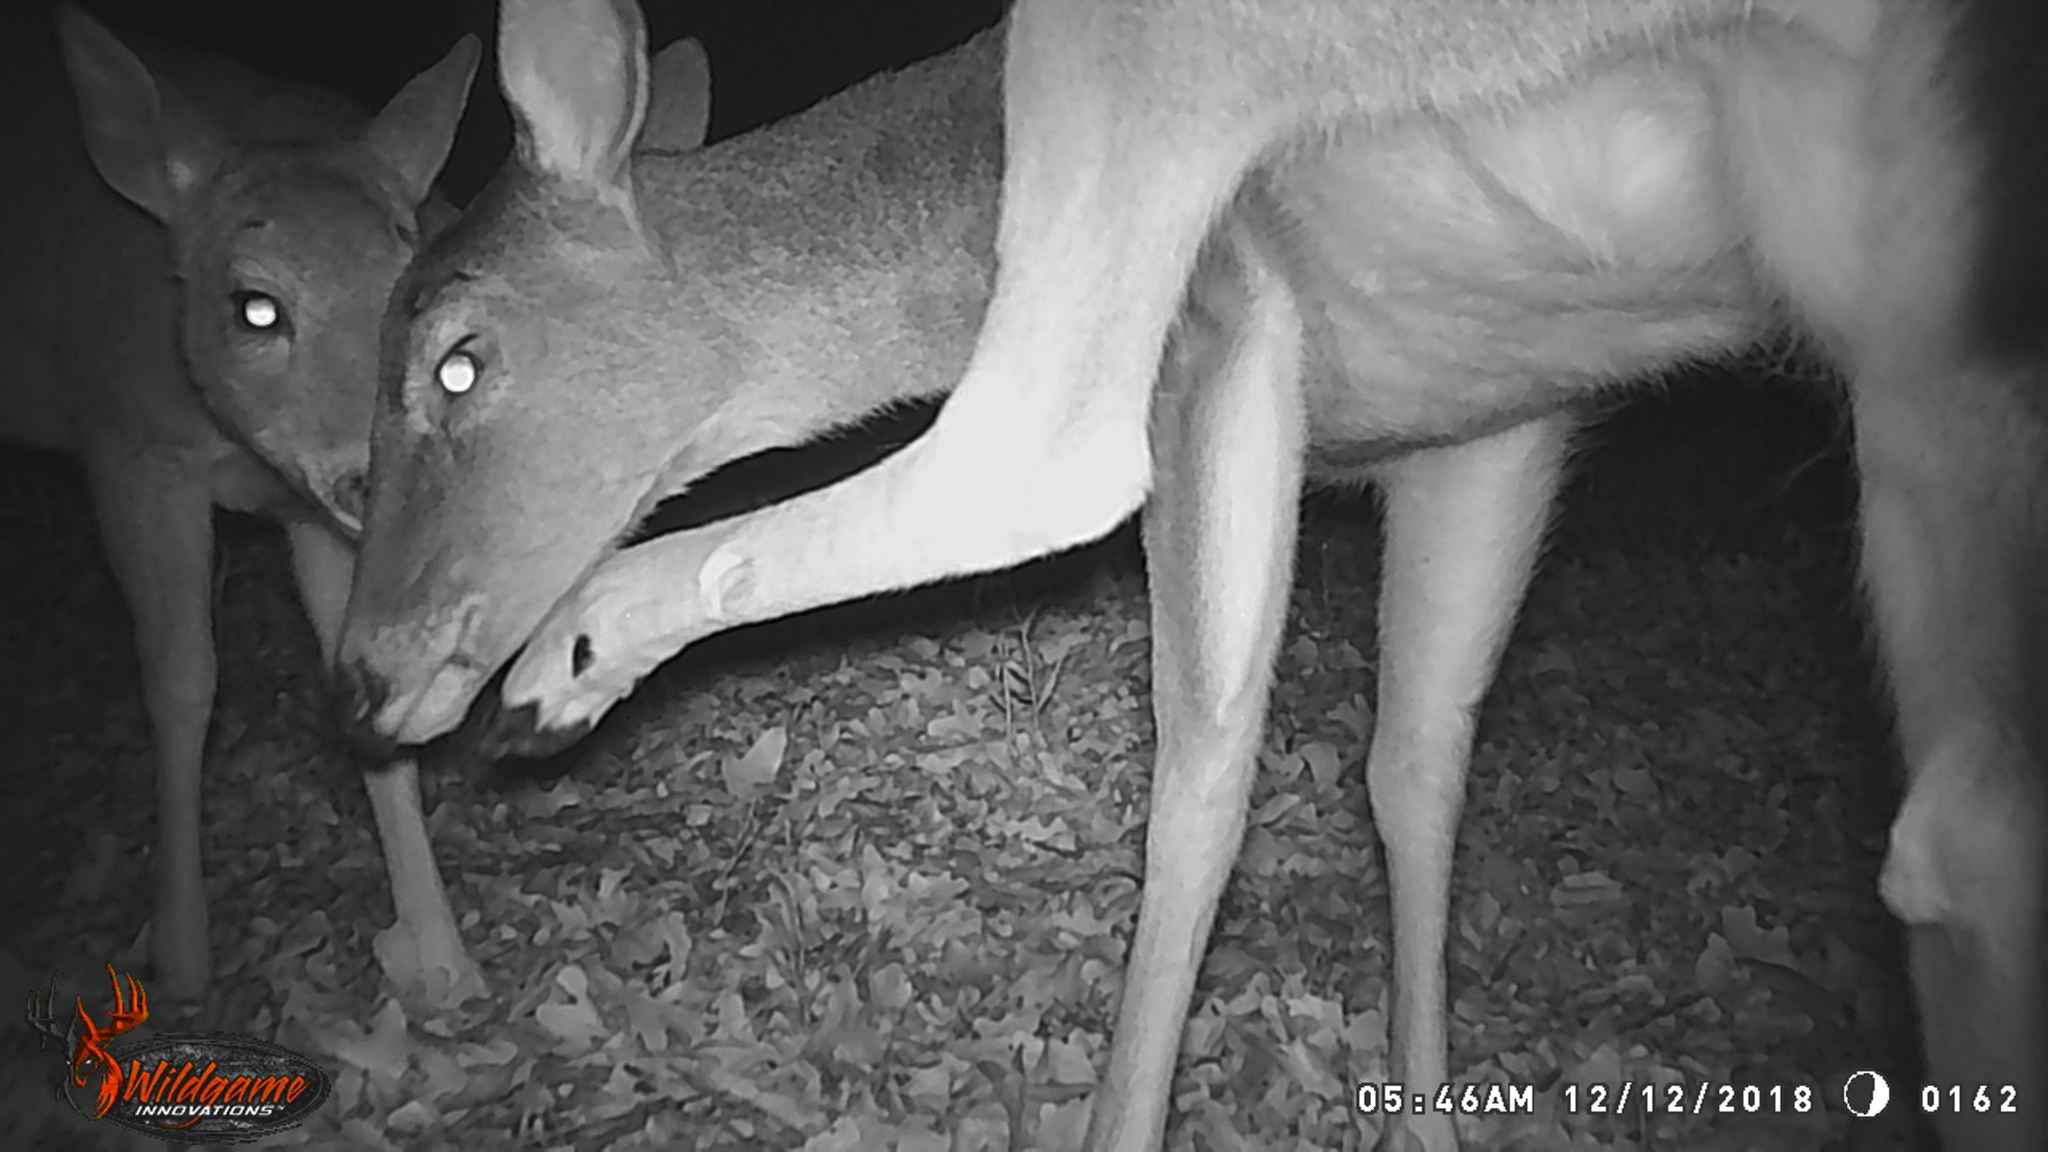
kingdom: Animalia
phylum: Chordata
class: Mammalia
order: Artiodactyla
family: Cervidae
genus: Odocoileus
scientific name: Odocoileus virginianus
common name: White-tailed deer
